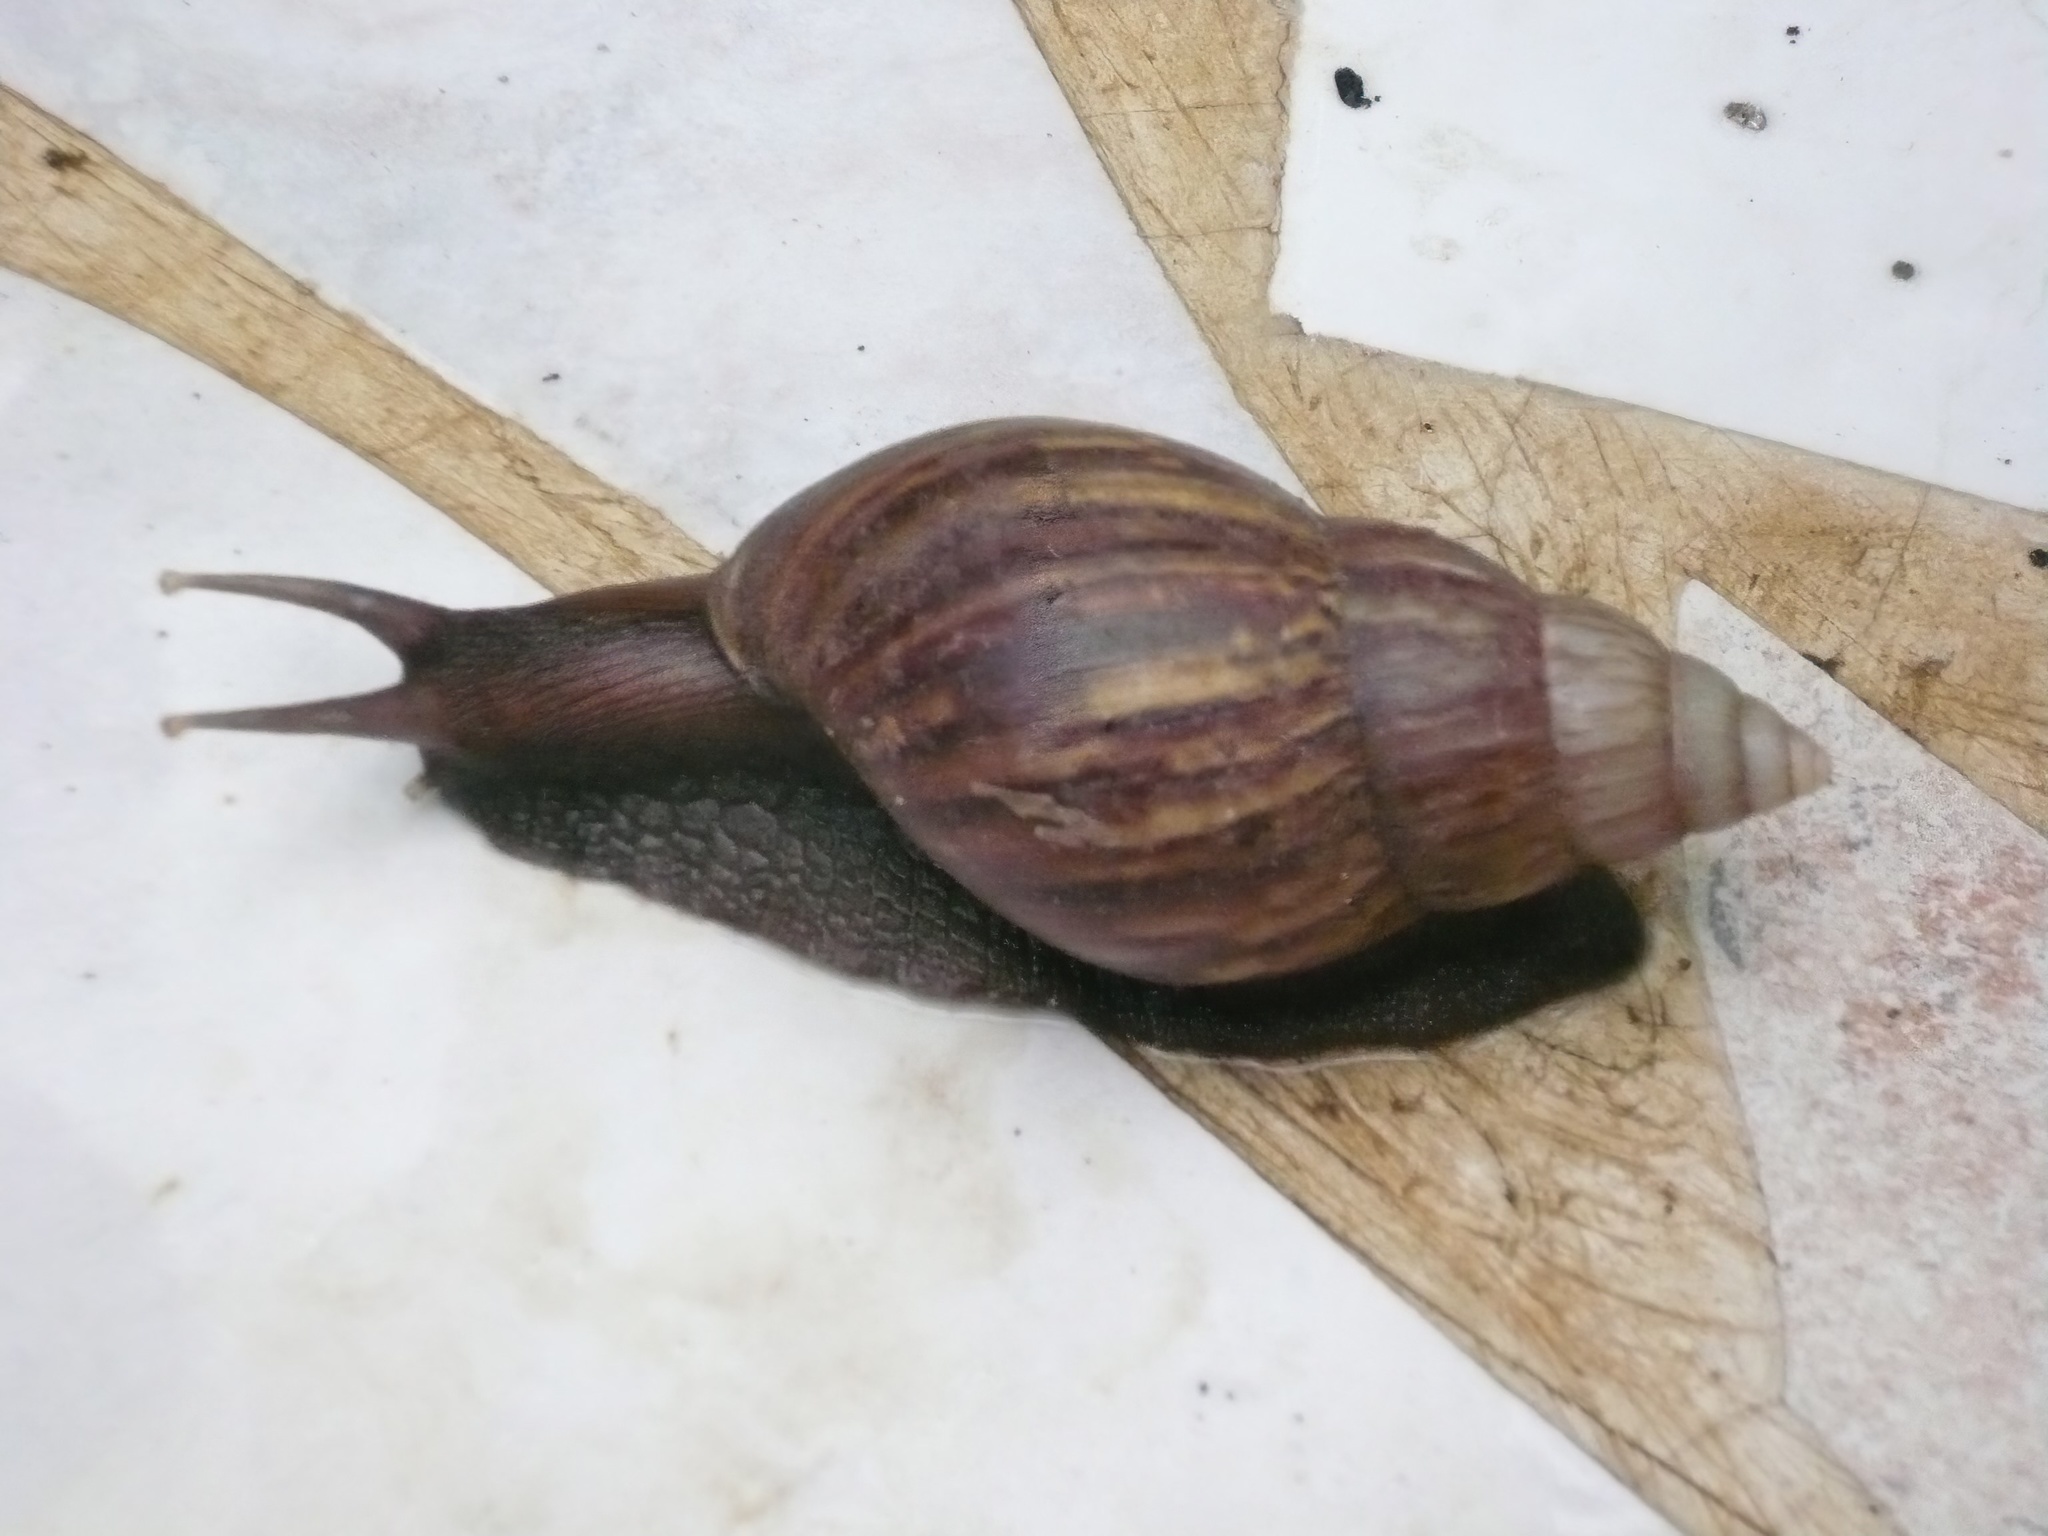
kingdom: Animalia
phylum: Mollusca
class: Gastropoda
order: Stylommatophora
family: Achatinidae
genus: Lissachatina
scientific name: Lissachatina fulica
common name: Giant african snail
